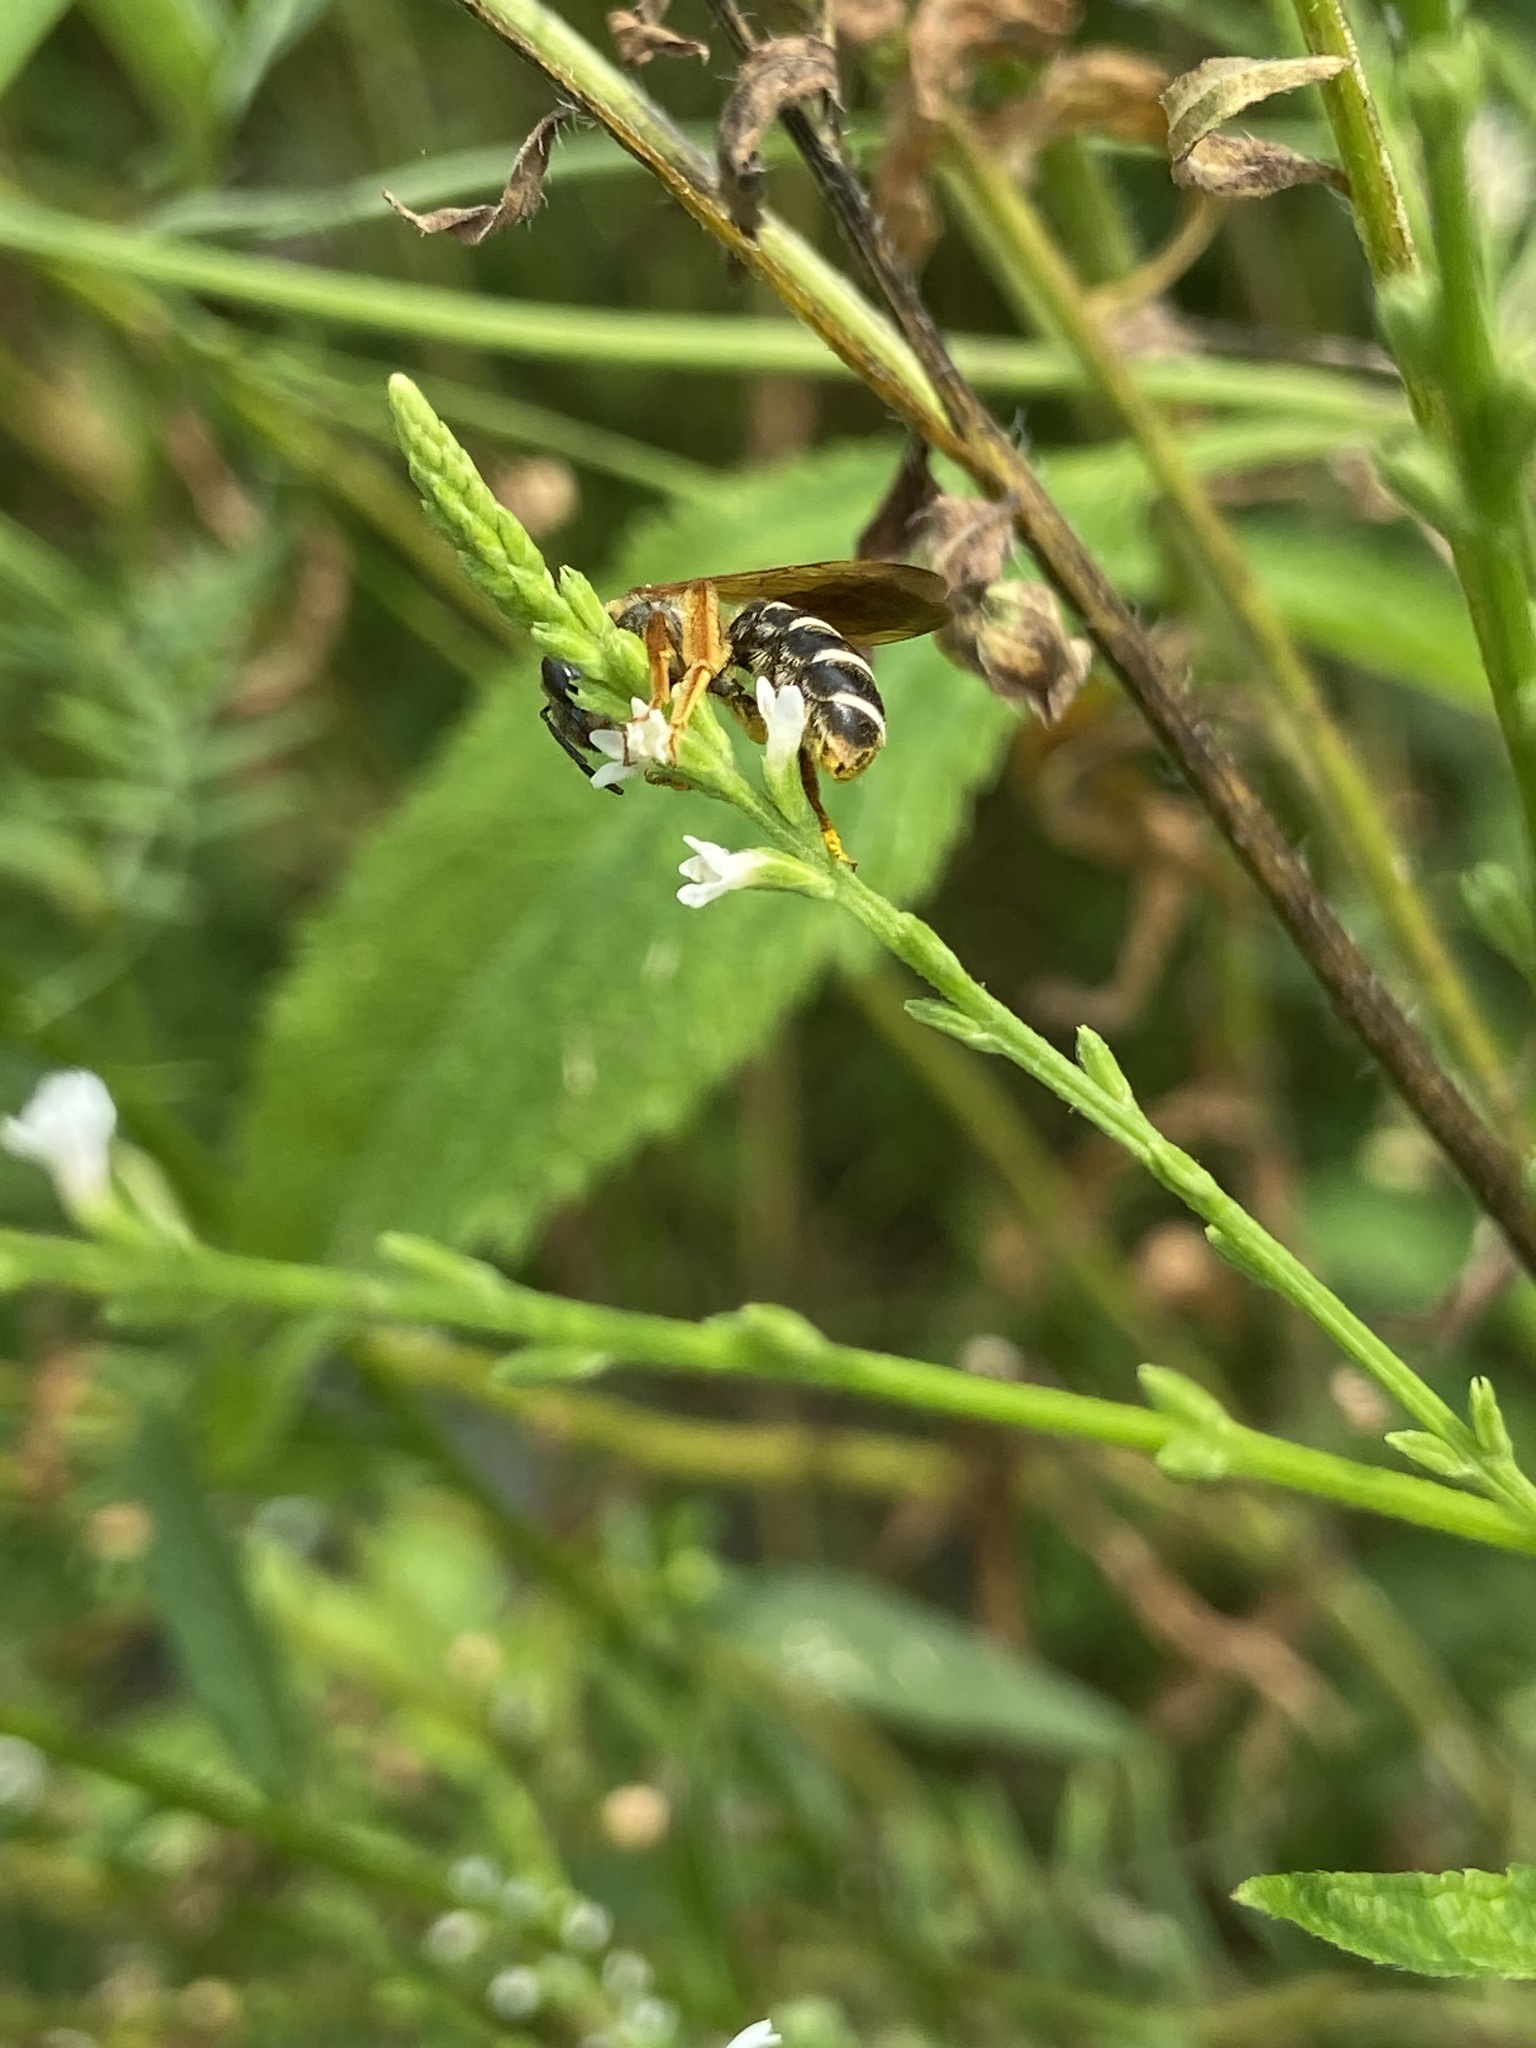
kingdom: Animalia
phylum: Arthropoda
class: Insecta
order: Hymenoptera
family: Halictidae
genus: Halictus
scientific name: Halictus parallelus
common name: Parallel-striped sweat bee
